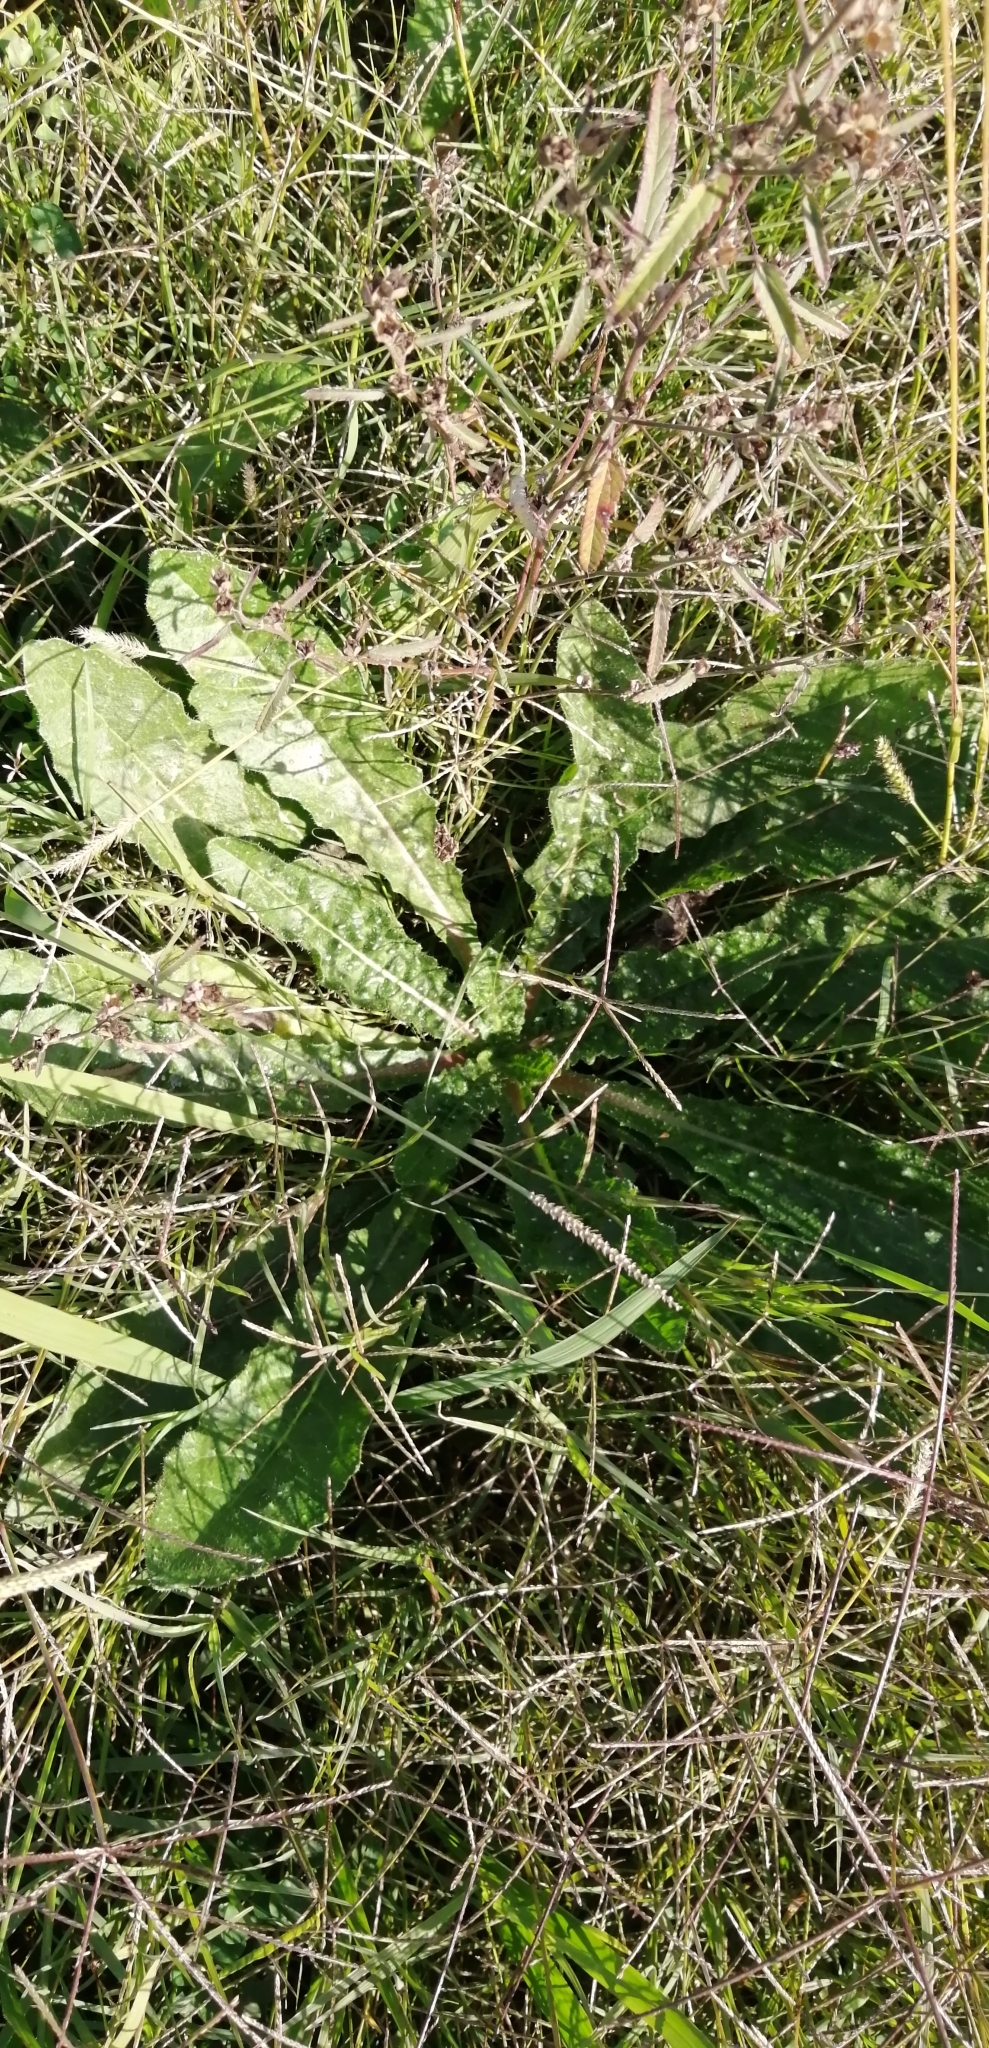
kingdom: Plantae
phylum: Tracheophyta
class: Magnoliopsida
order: Asterales
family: Asteraceae
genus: Helminthotheca
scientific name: Helminthotheca echioides
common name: Ox-tongue
